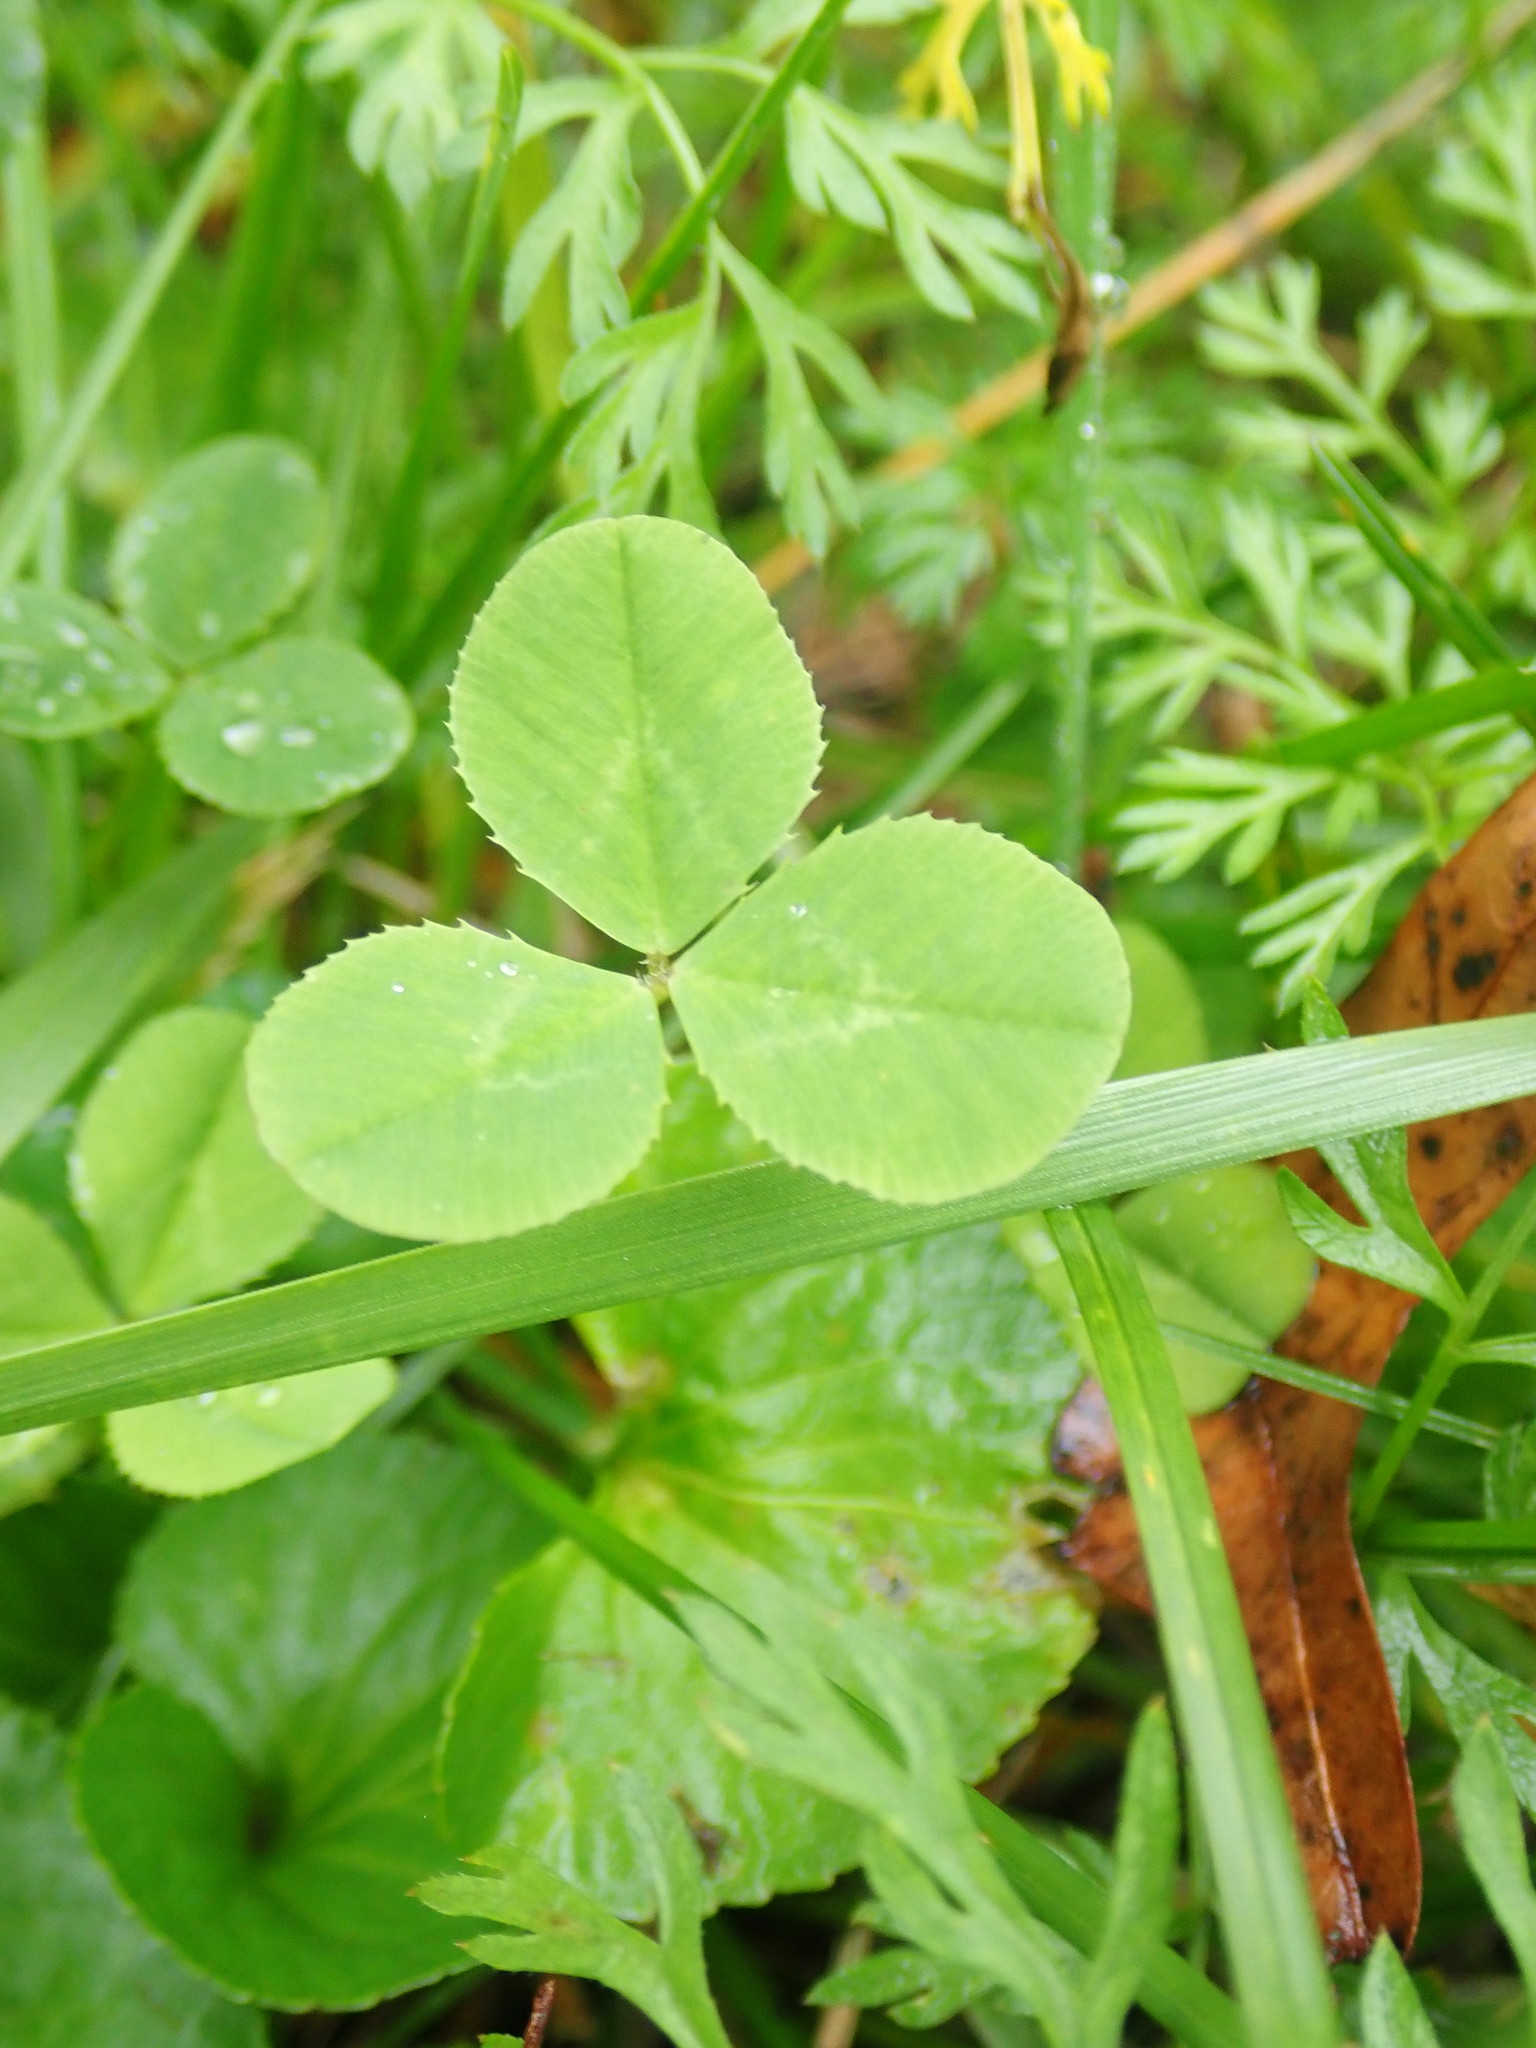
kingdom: Plantae
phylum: Tracheophyta
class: Magnoliopsida
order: Fabales
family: Fabaceae
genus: Trifolium
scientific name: Trifolium repens
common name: White clover
